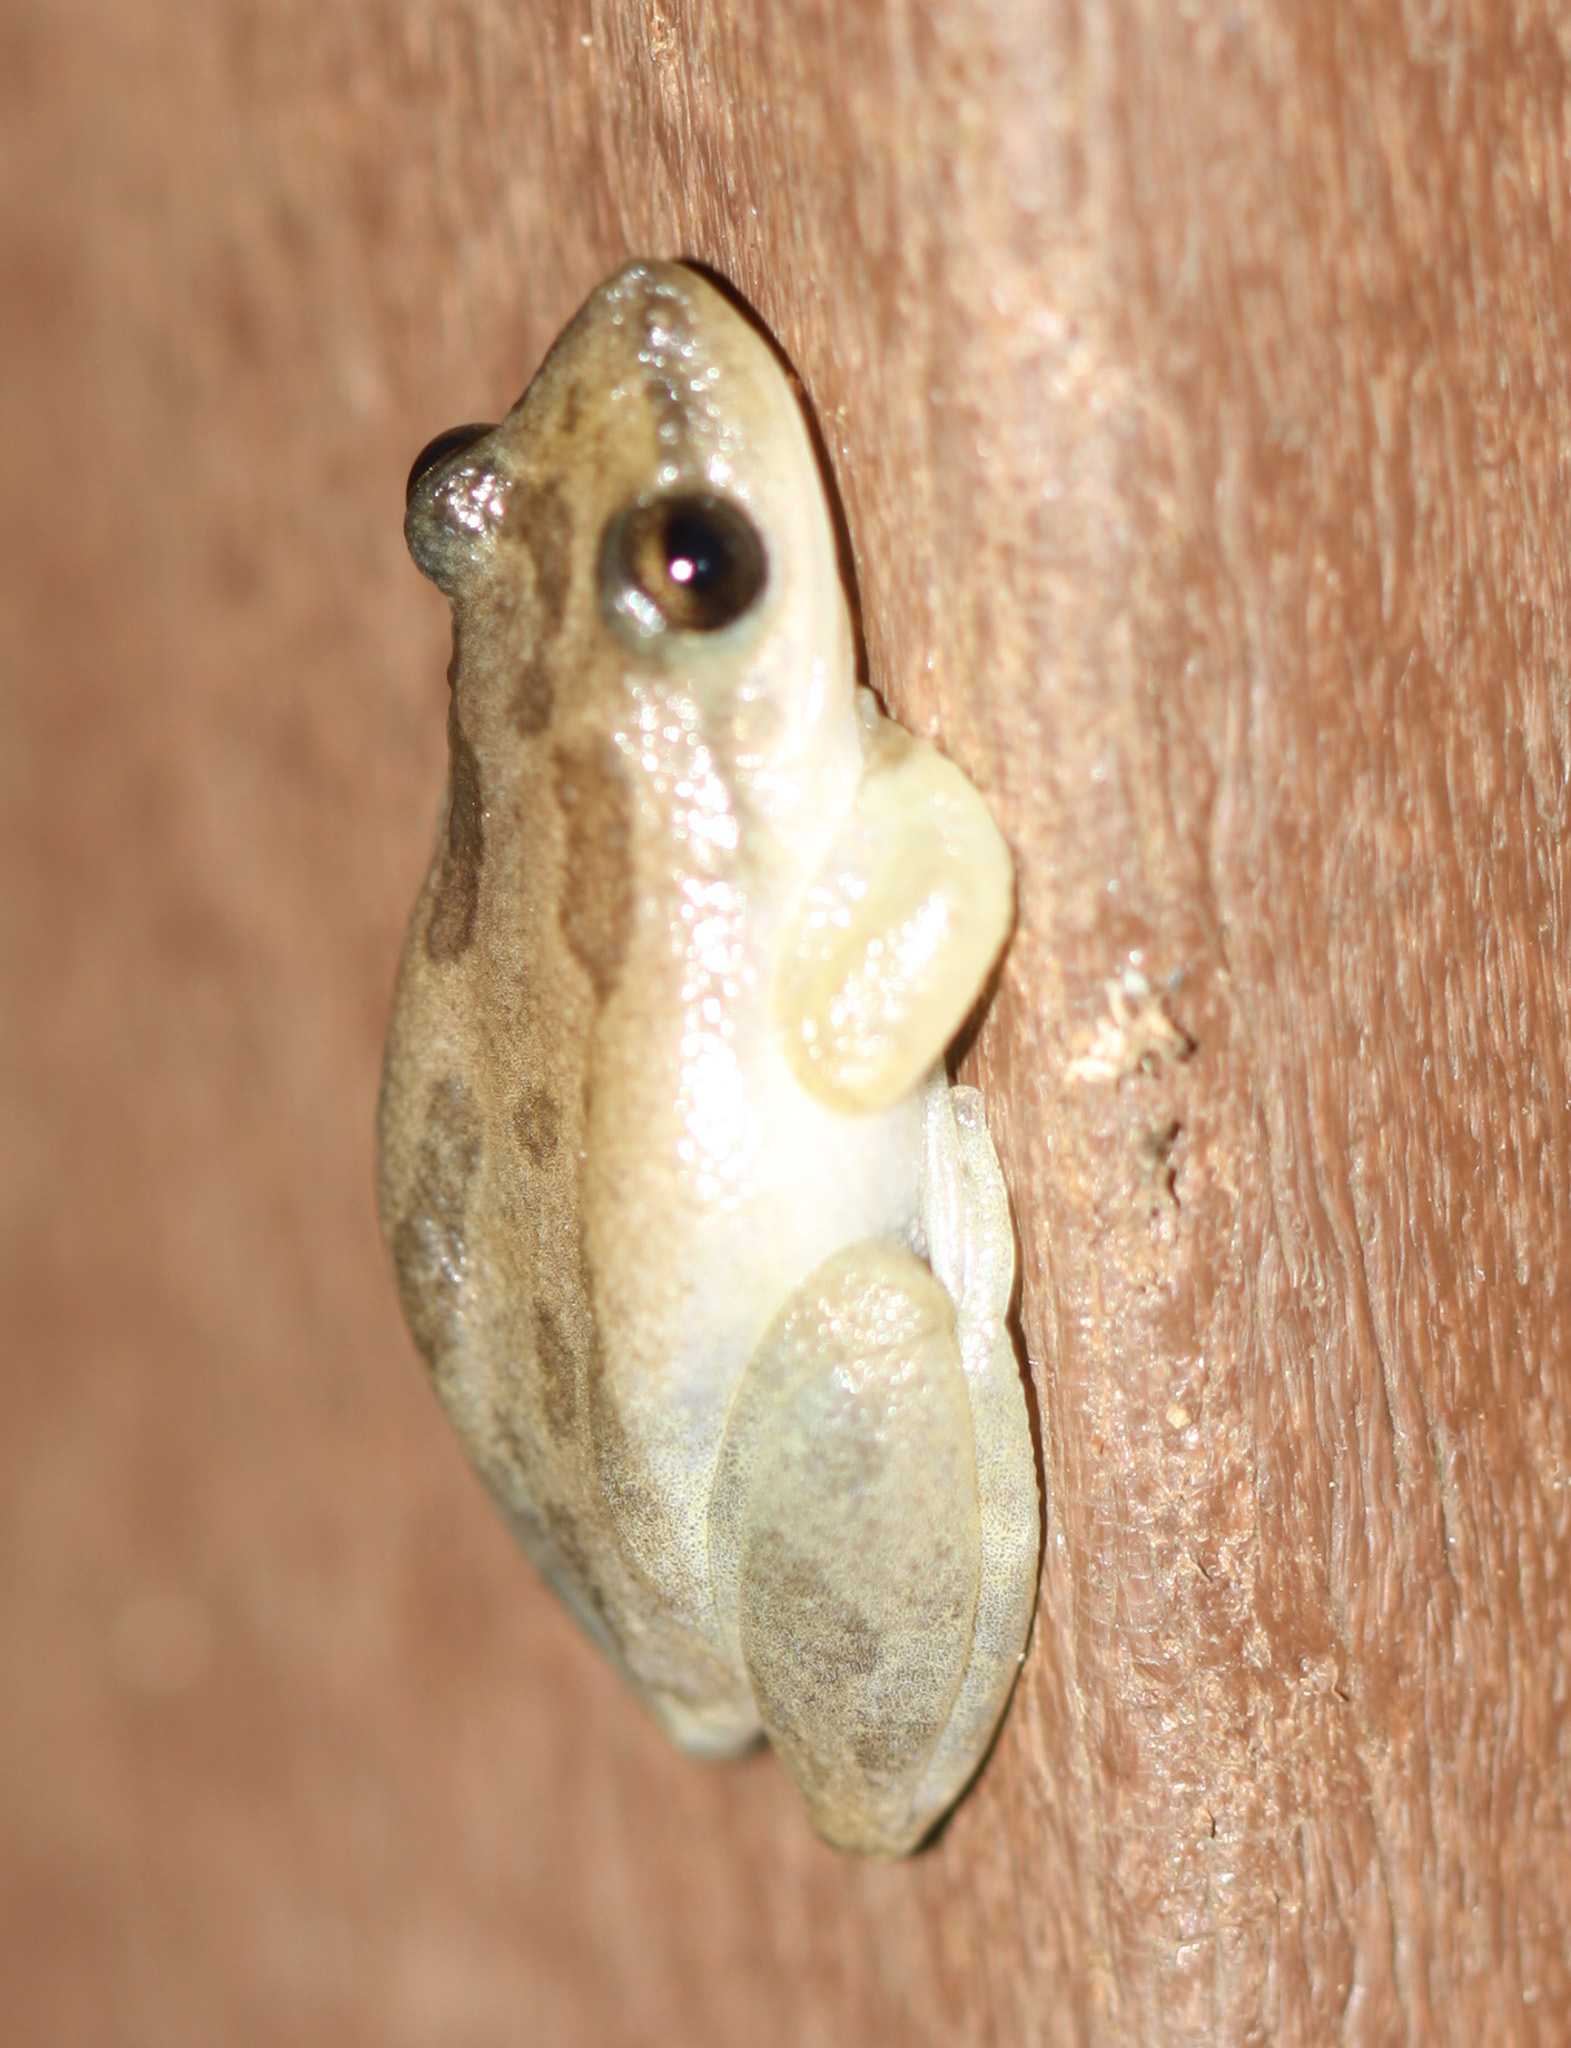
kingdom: Animalia
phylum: Chordata
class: Amphibia
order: Anura
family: Hylidae
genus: Scinax
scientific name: Scinax staufferi
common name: Stauffer's long-nosed treefrog
